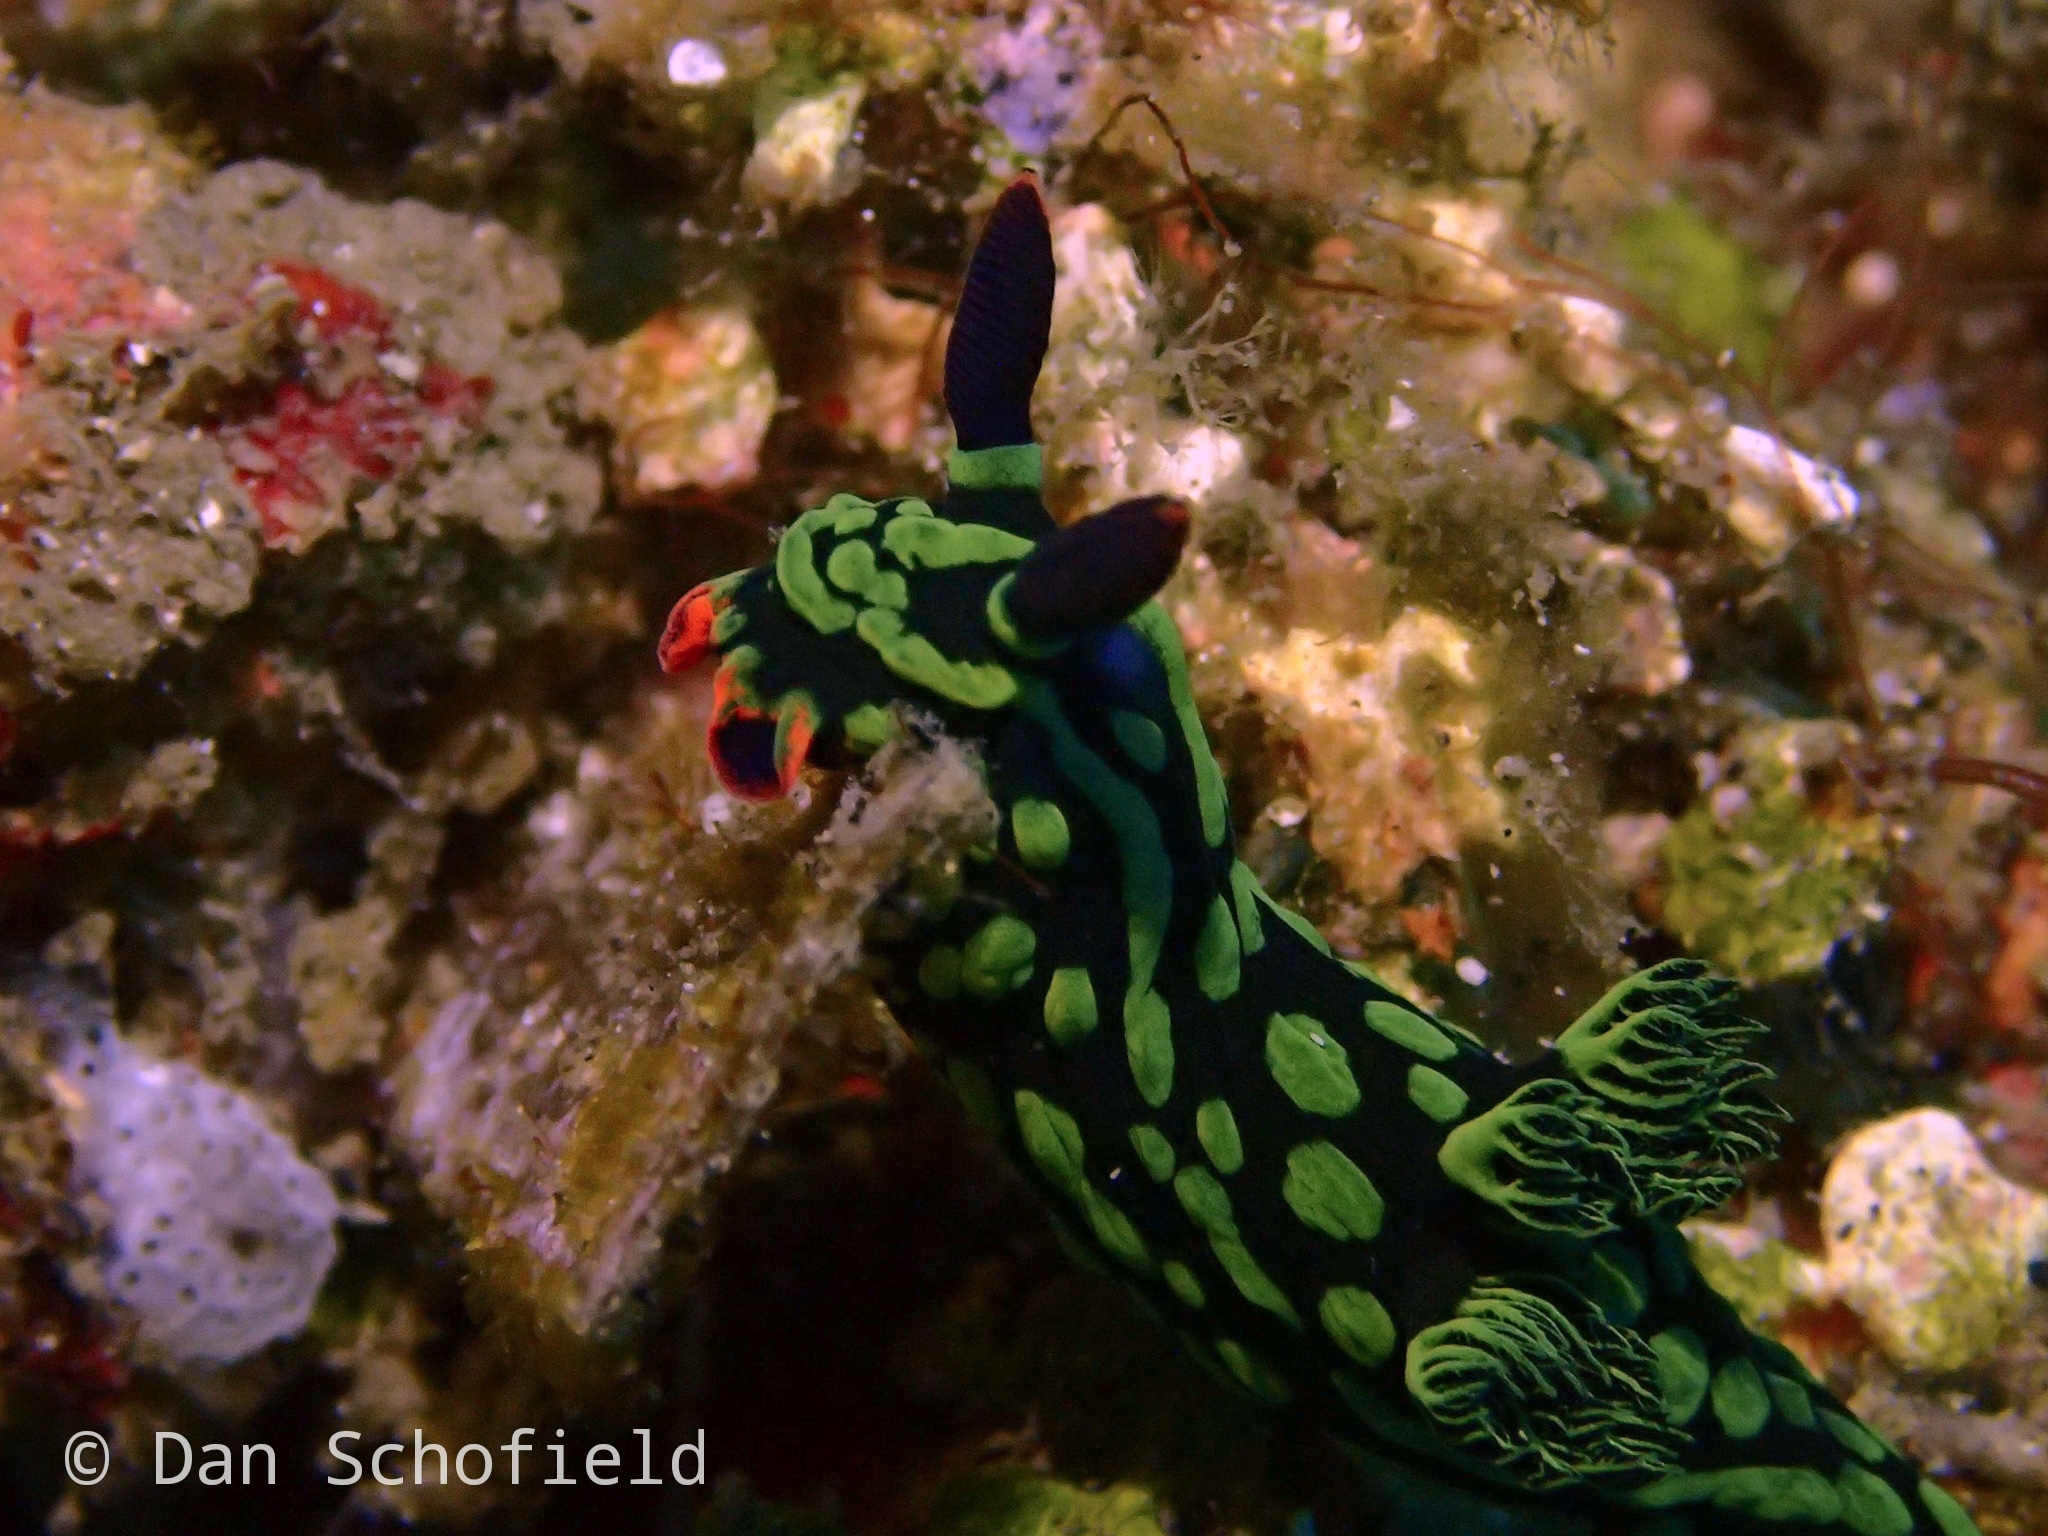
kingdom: Animalia
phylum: Mollusca
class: Gastropoda
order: Nudibranchia
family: Polyceridae
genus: Nembrotha
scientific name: Nembrotha kubaryana
